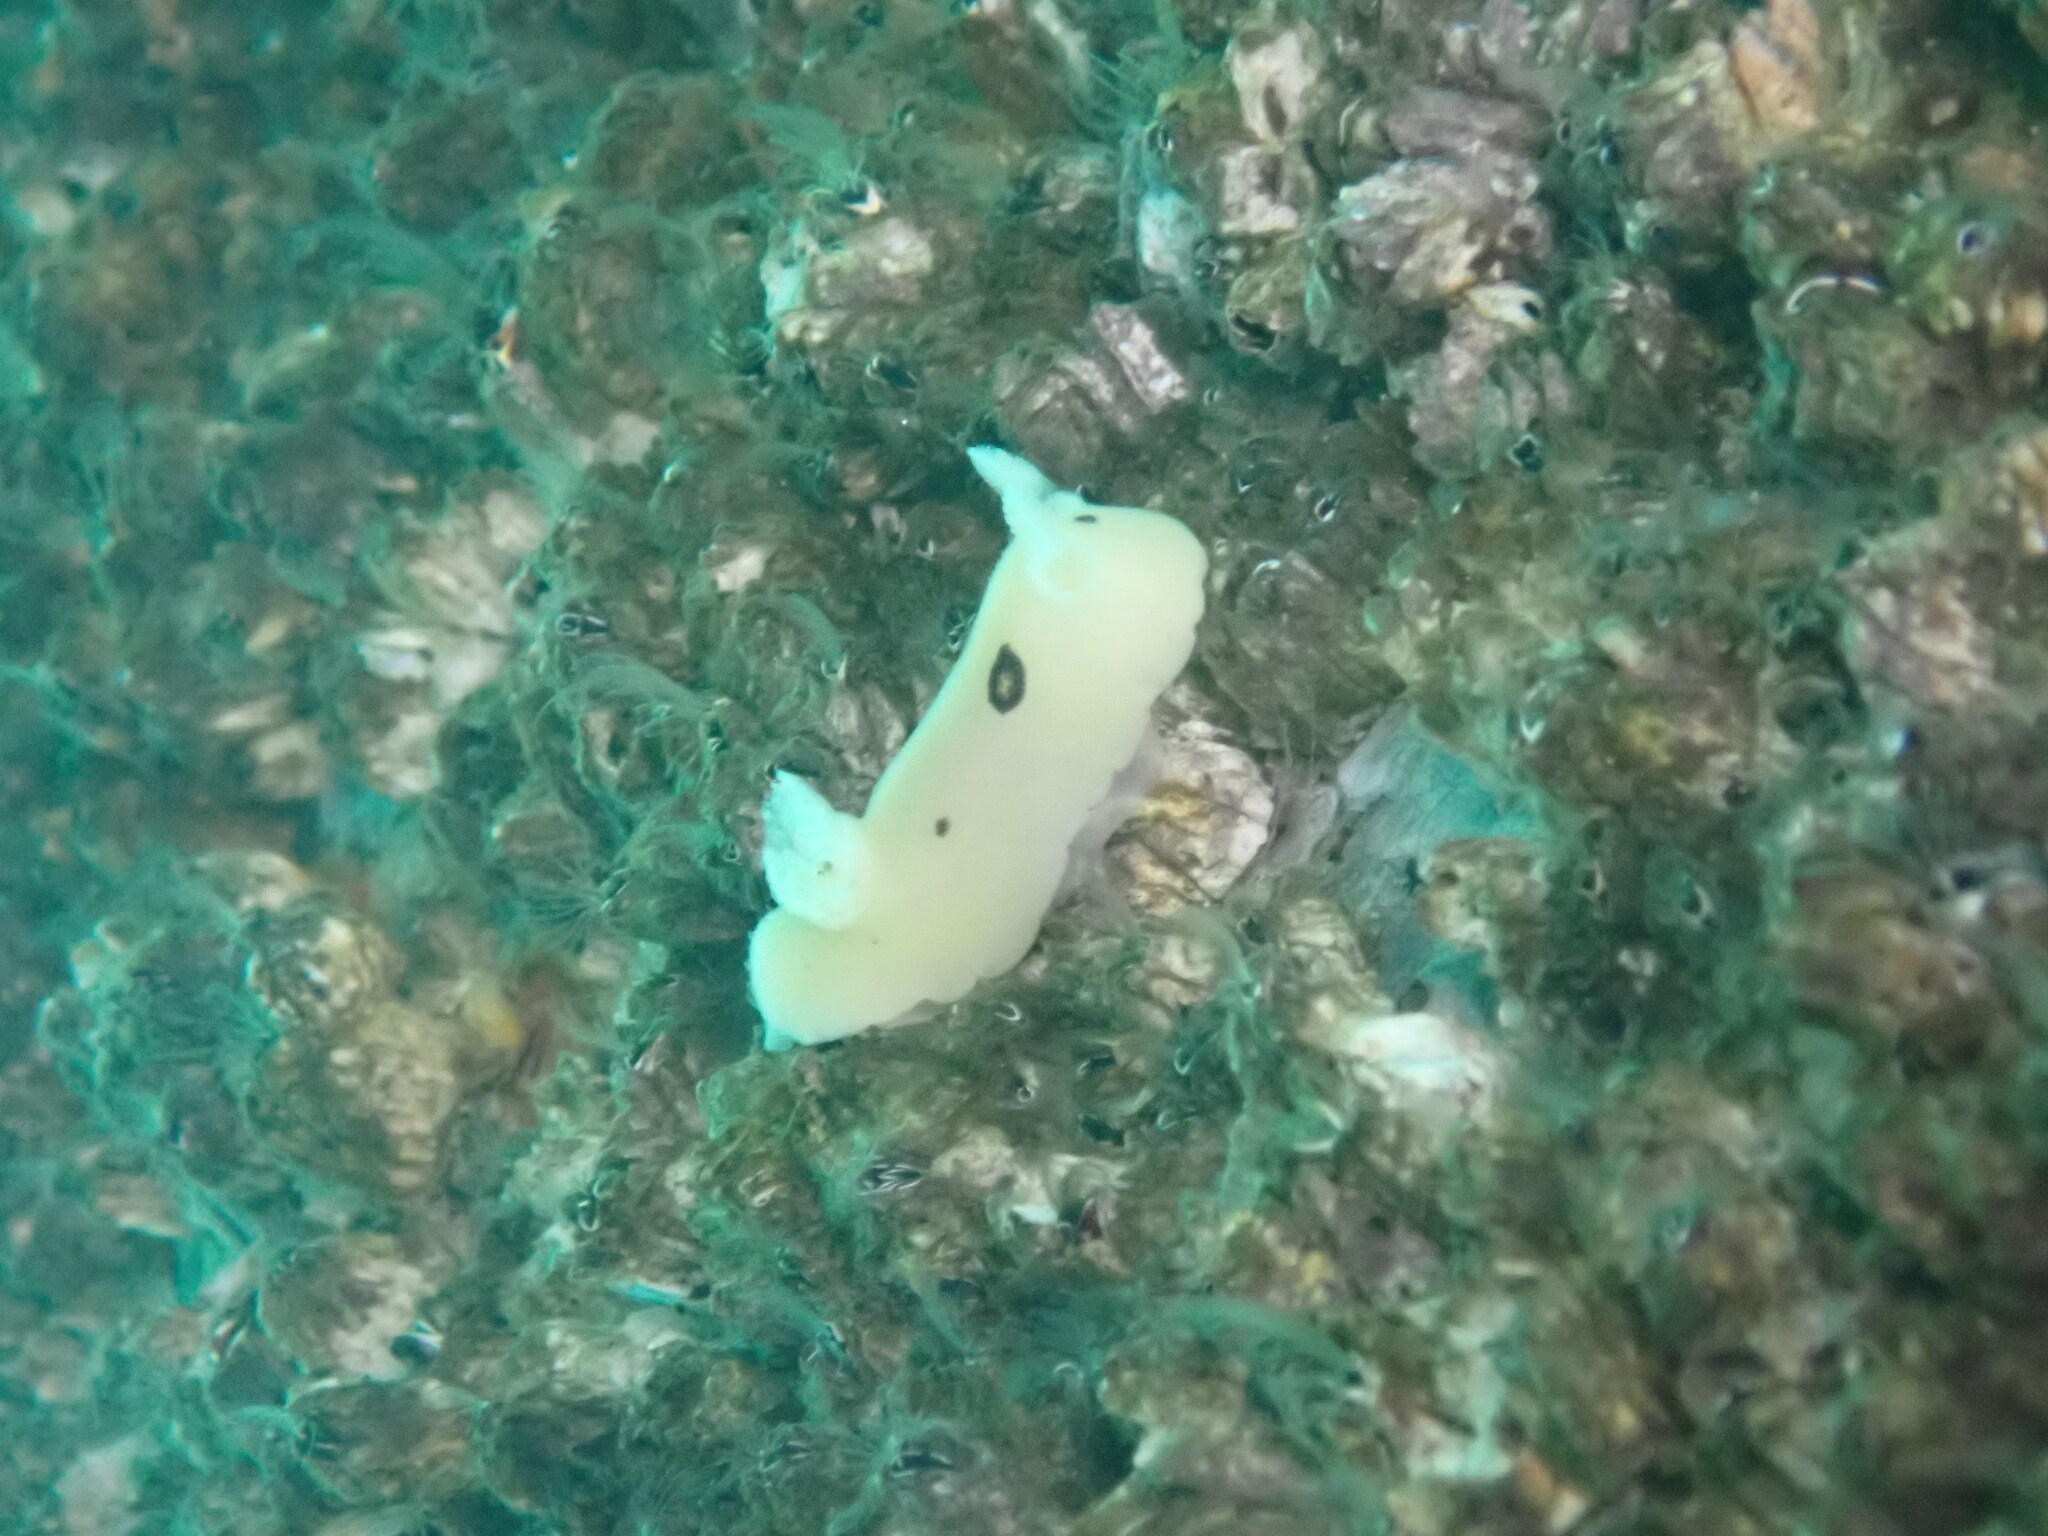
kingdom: Animalia
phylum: Mollusca
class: Gastropoda
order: Nudibranchia
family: Discodorididae
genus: Diaulula
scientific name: Diaulula sandiegensis
